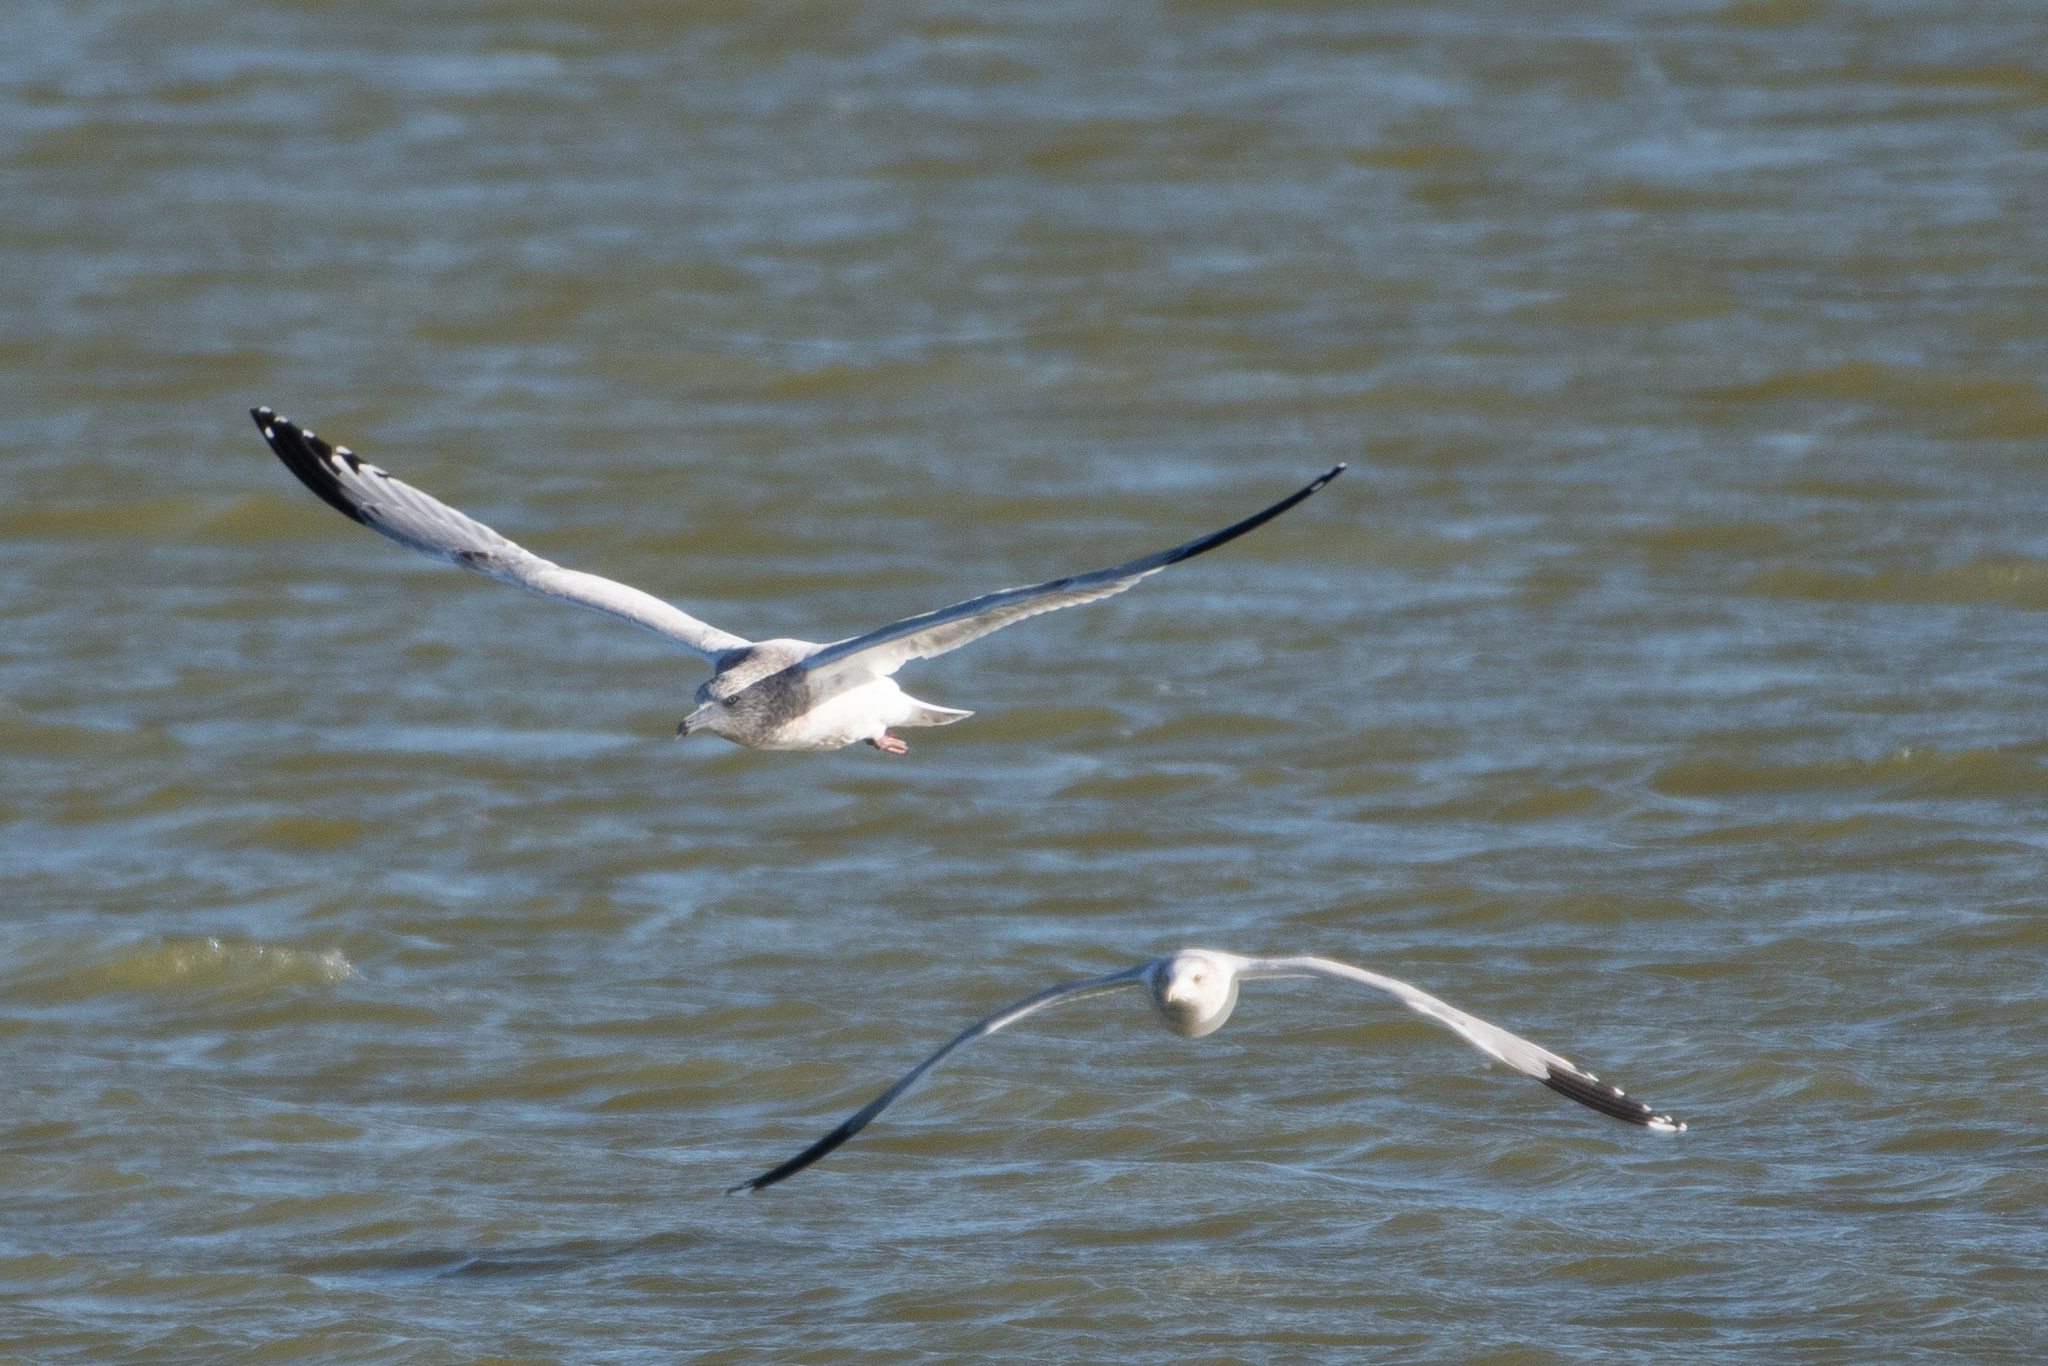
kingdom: Animalia
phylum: Chordata
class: Aves
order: Charadriiformes
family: Laridae
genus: Larus
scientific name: Larus
